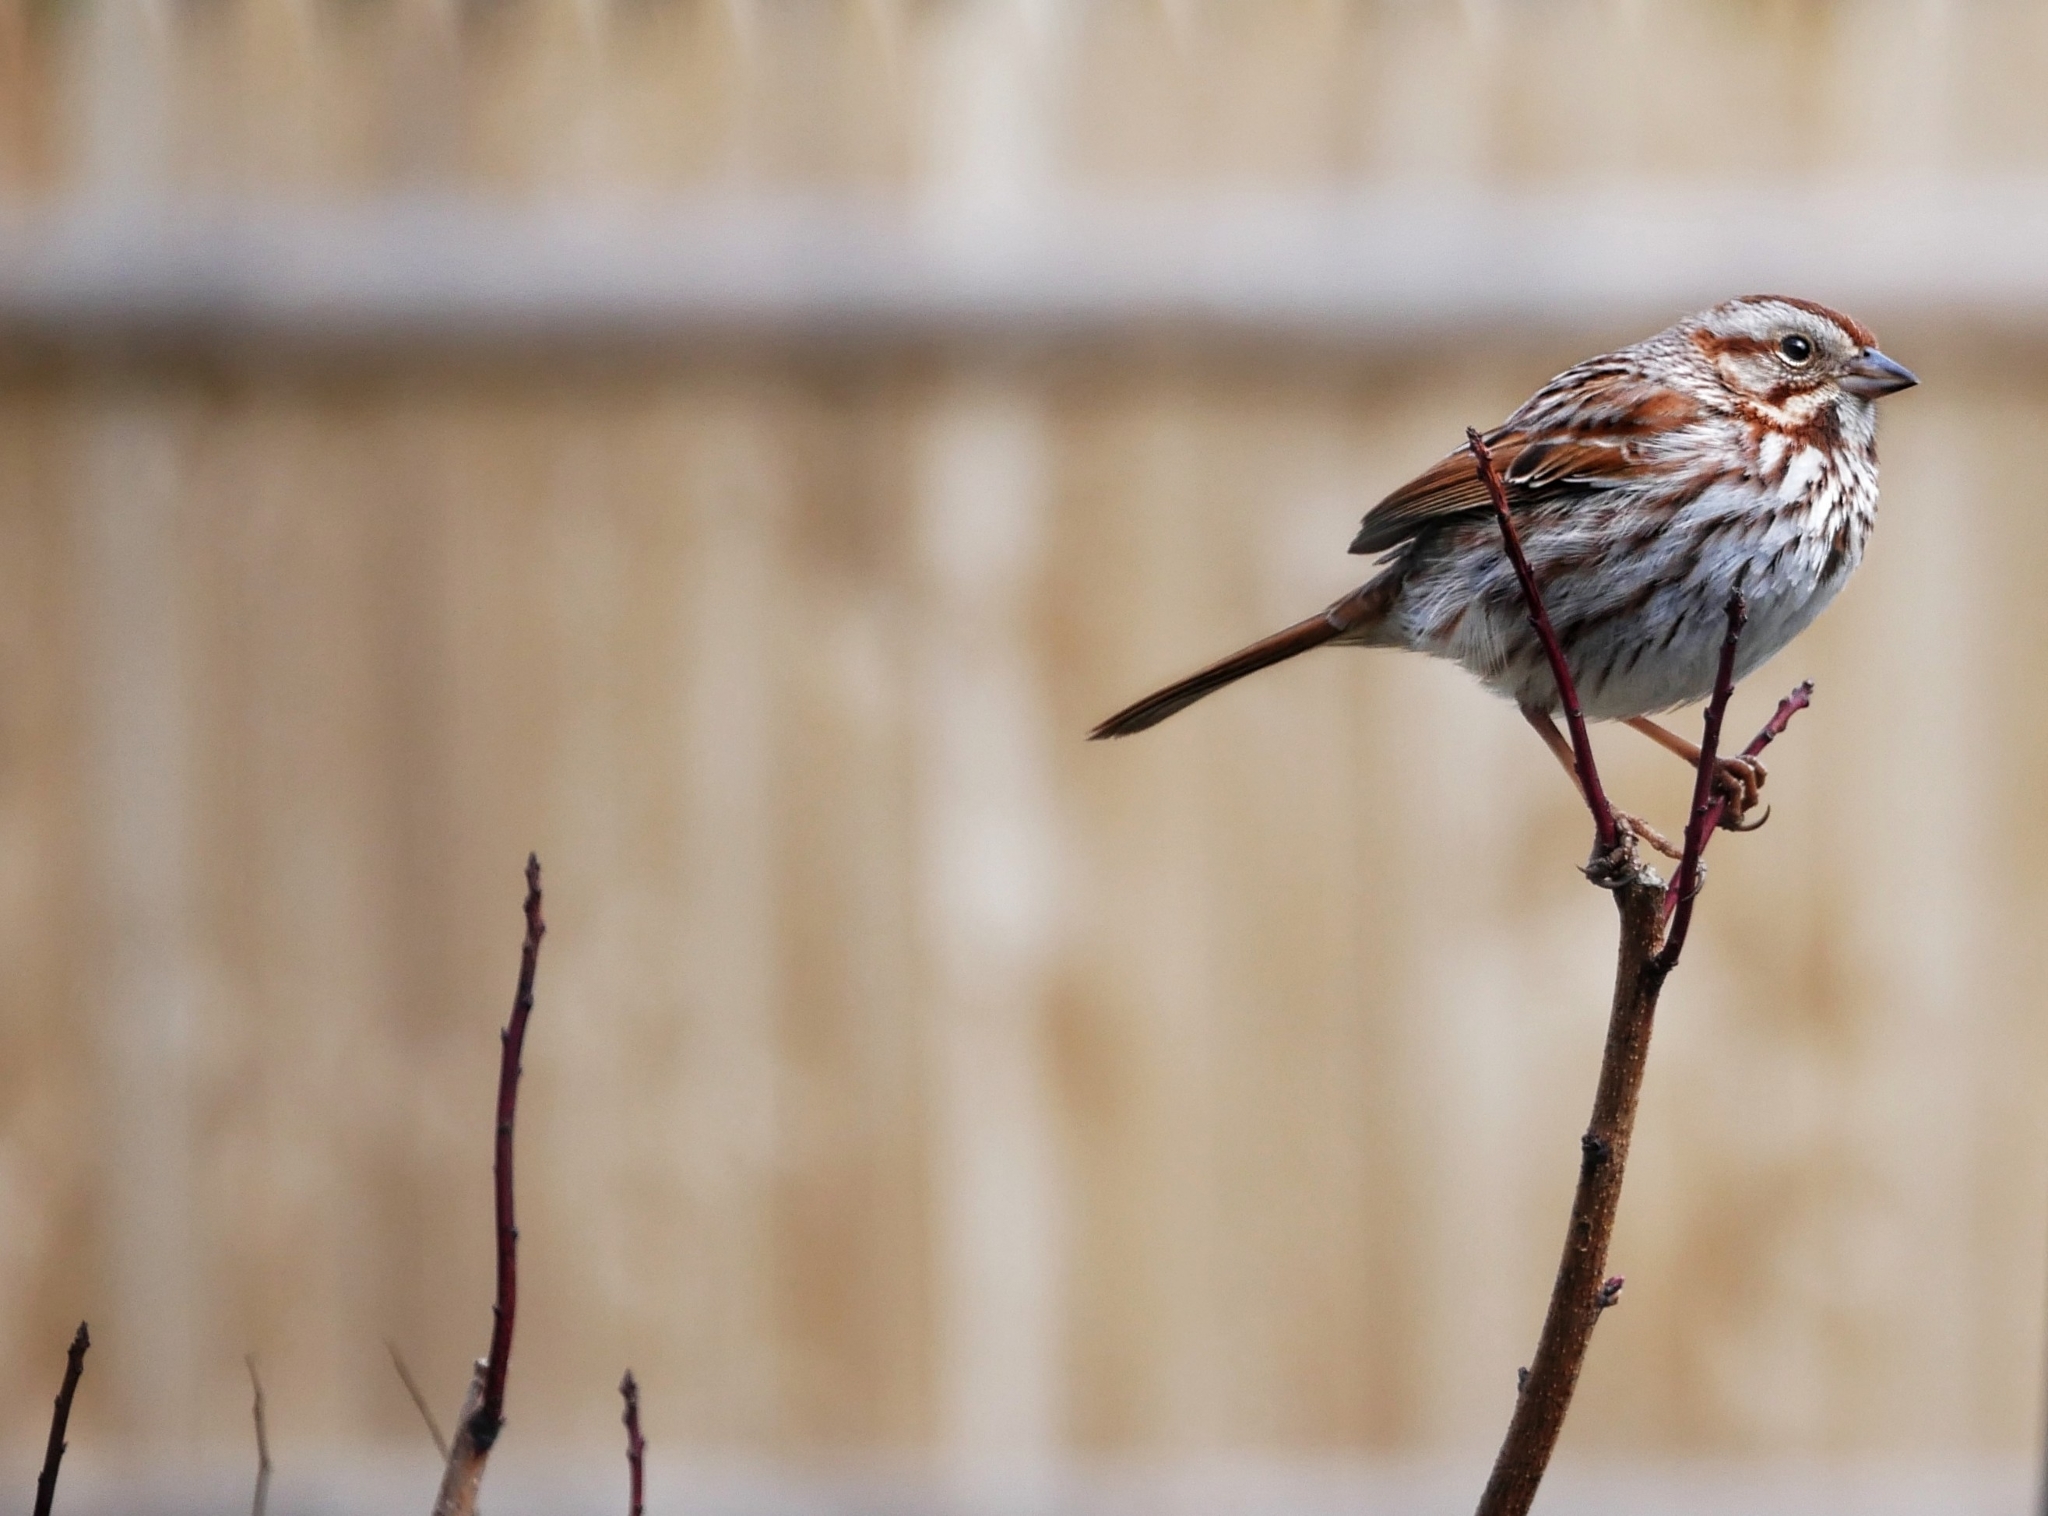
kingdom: Animalia
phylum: Chordata
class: Aves
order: Passeriformes
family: Passerellidae
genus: Melospiza
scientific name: Melospiza melodia
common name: Song sparrow
